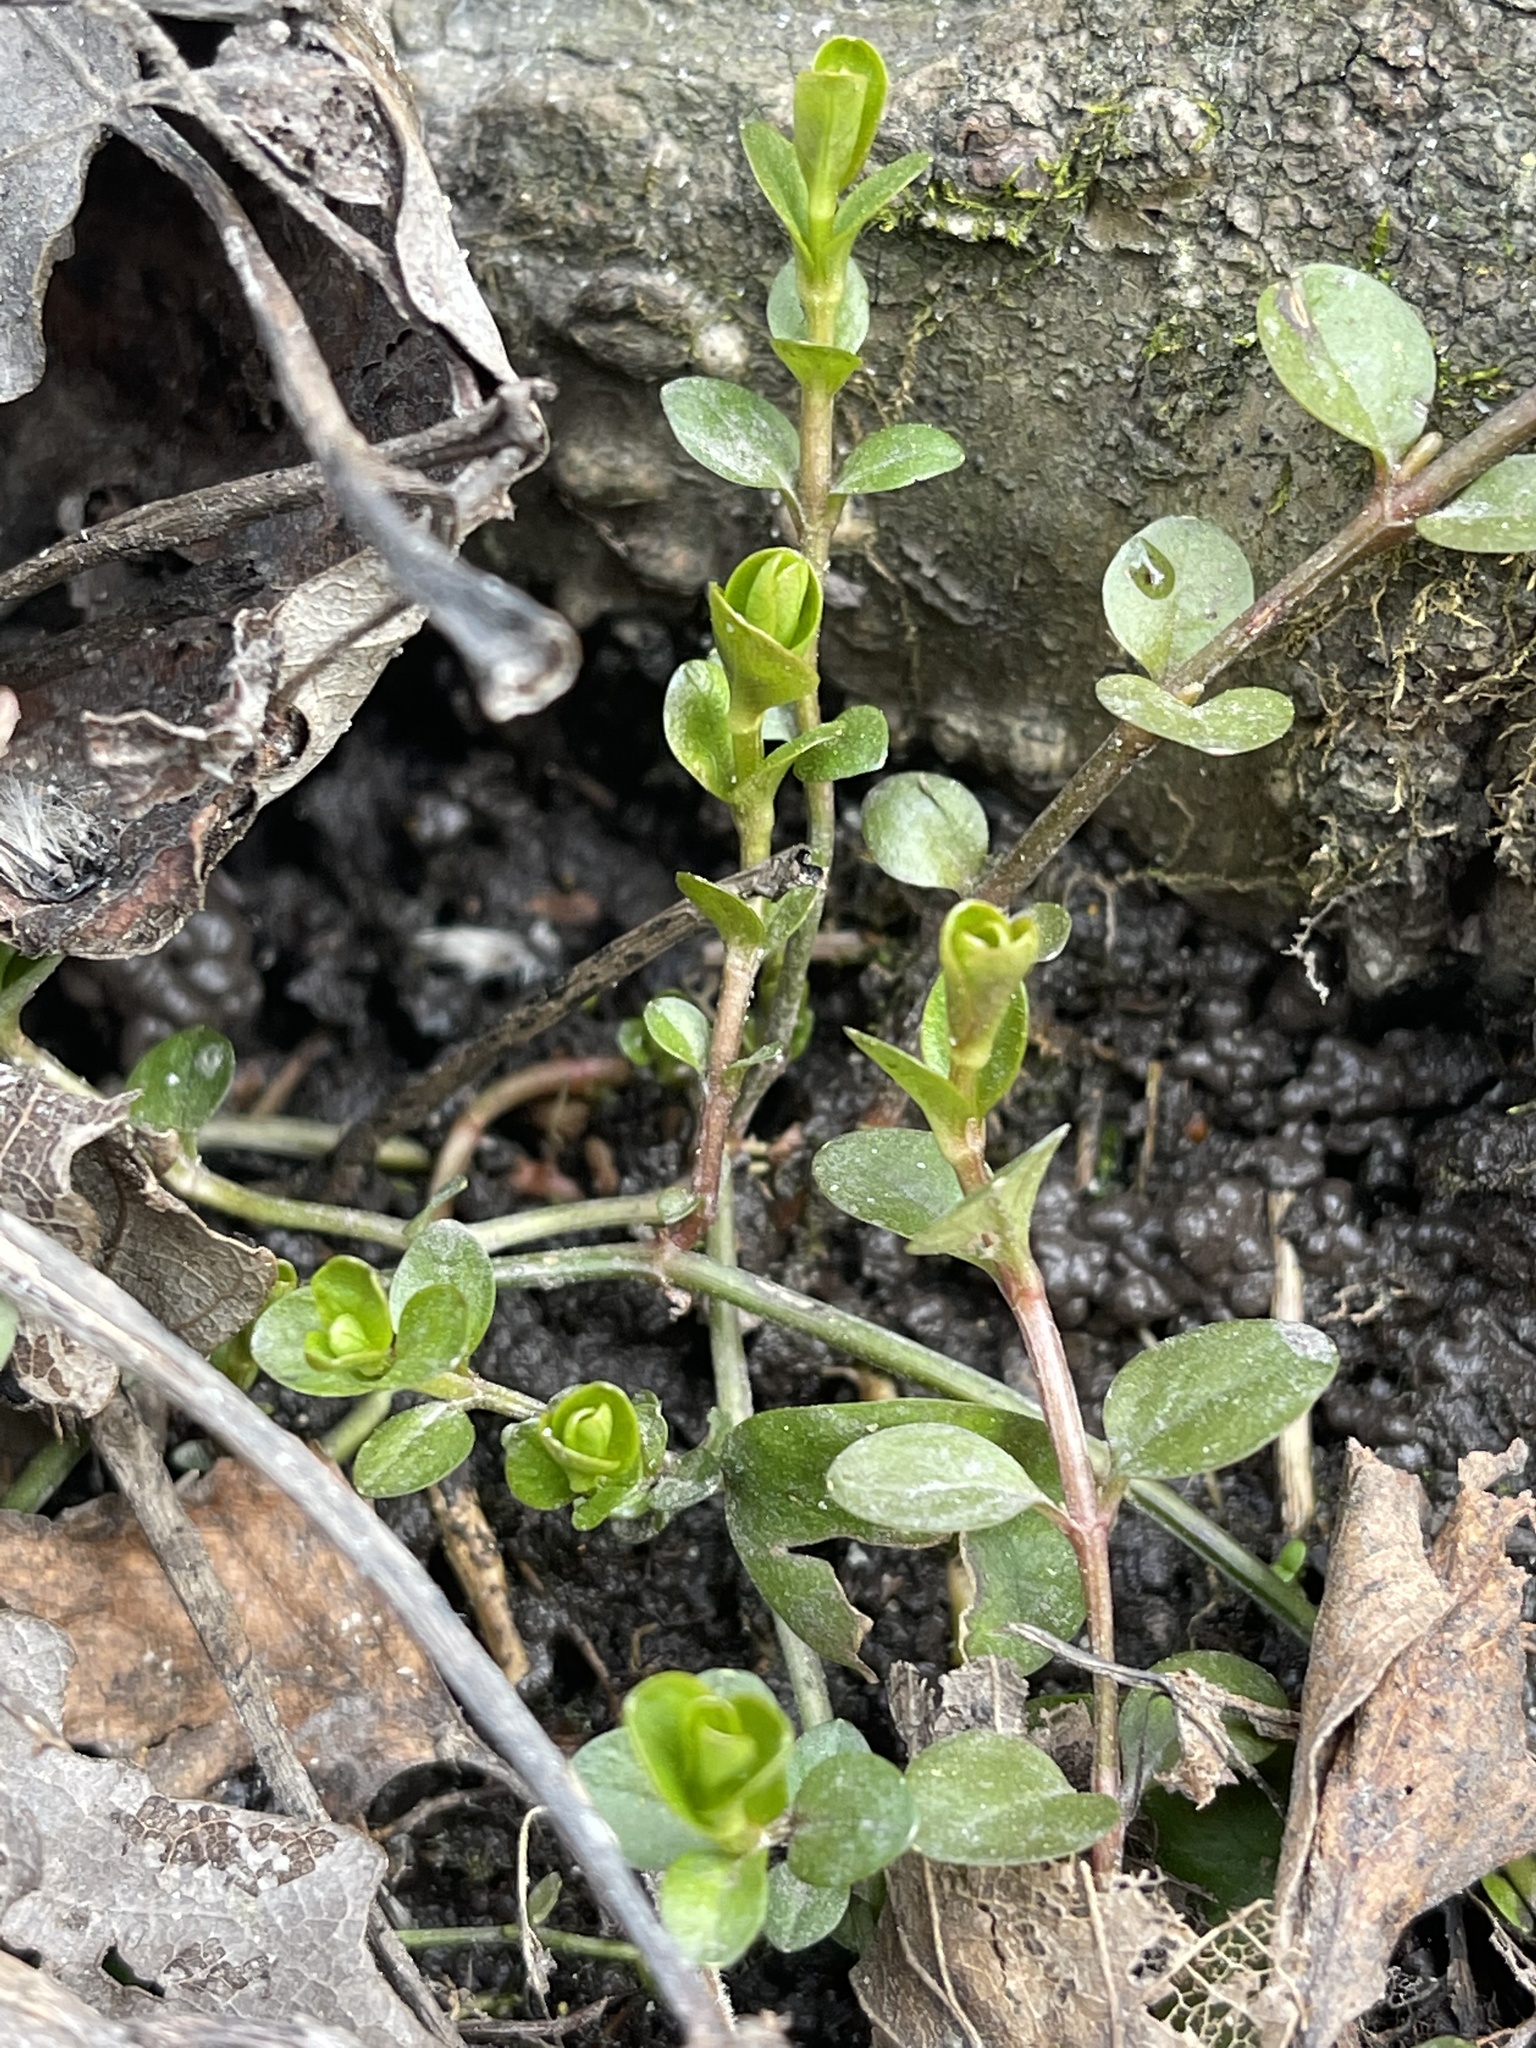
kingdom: Plantae
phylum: Tracheophyta
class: Magnoliopsida
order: Ericales
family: Primulaceae
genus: Lysimachia
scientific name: Lysimachia nummularia
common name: Moneywort
